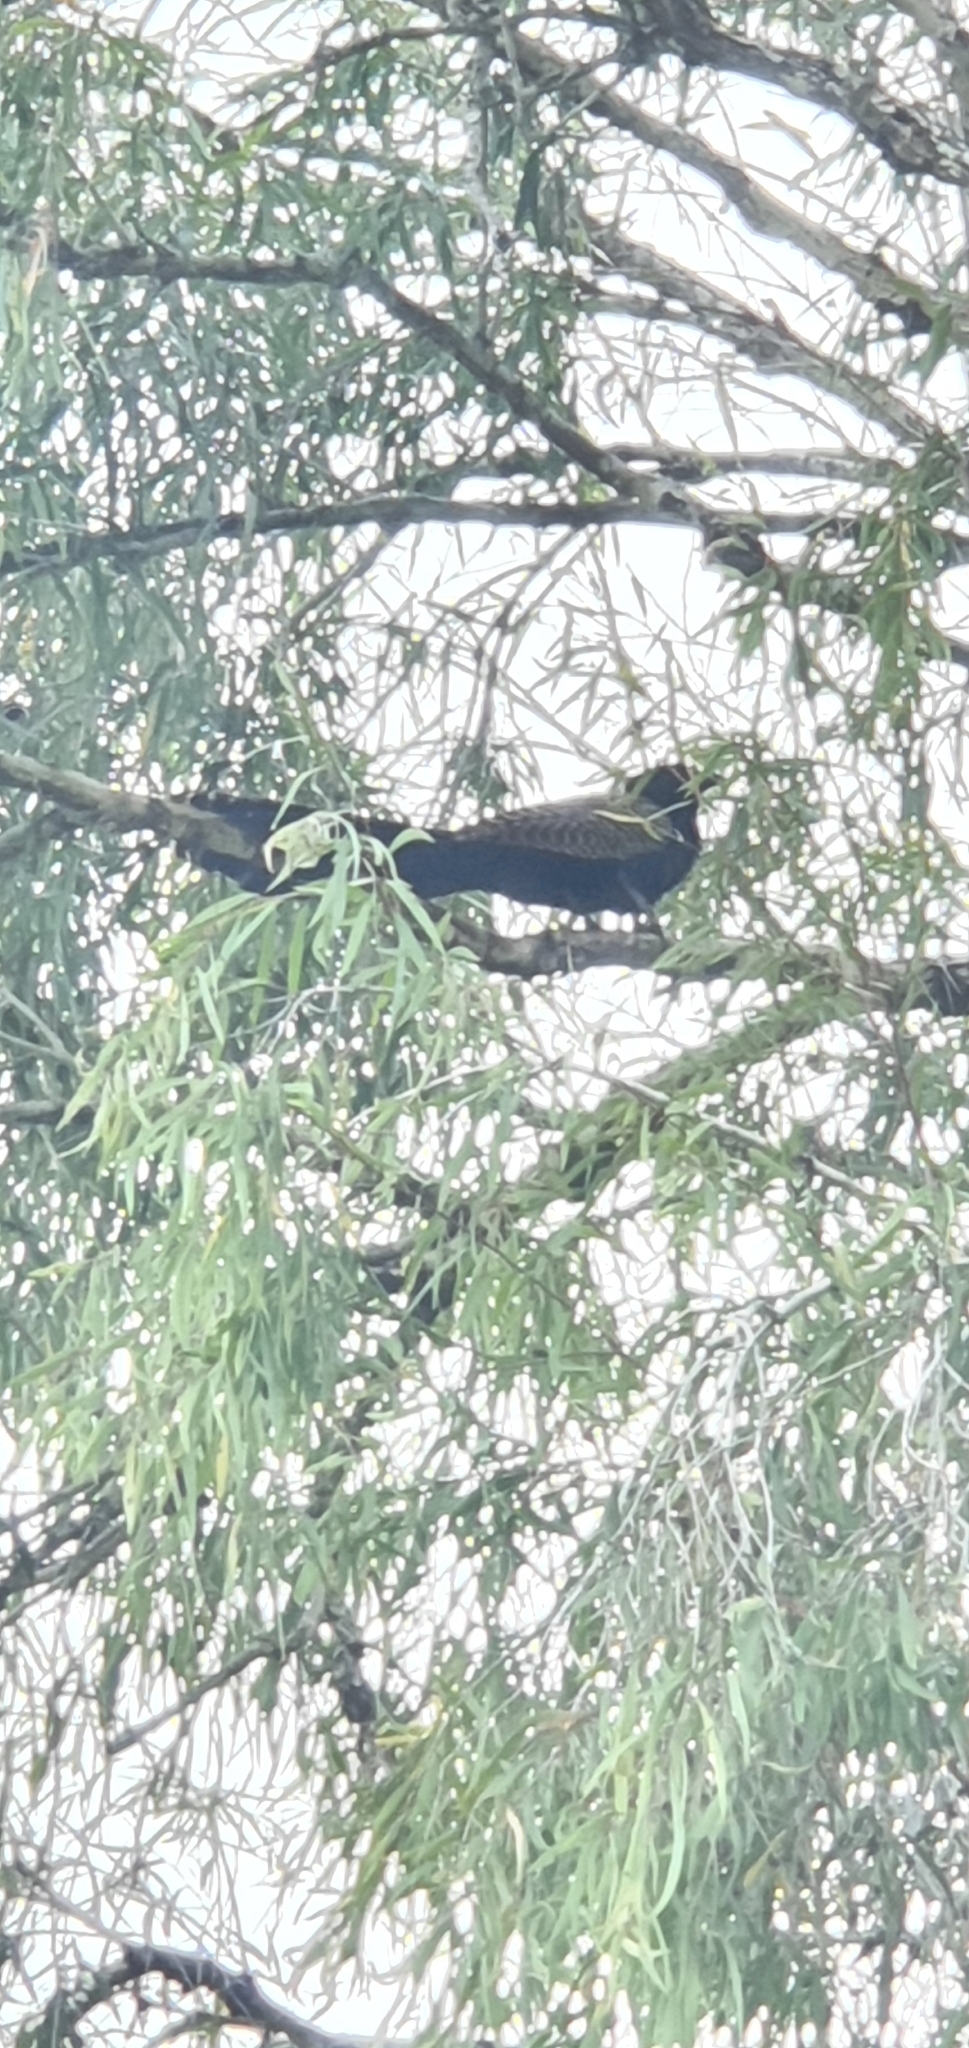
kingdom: Animalia
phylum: Chordata
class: Aves
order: Cuculiformes
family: Cuculidae
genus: Centropus
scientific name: Centropus phasianinus
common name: Pheasant coucal
